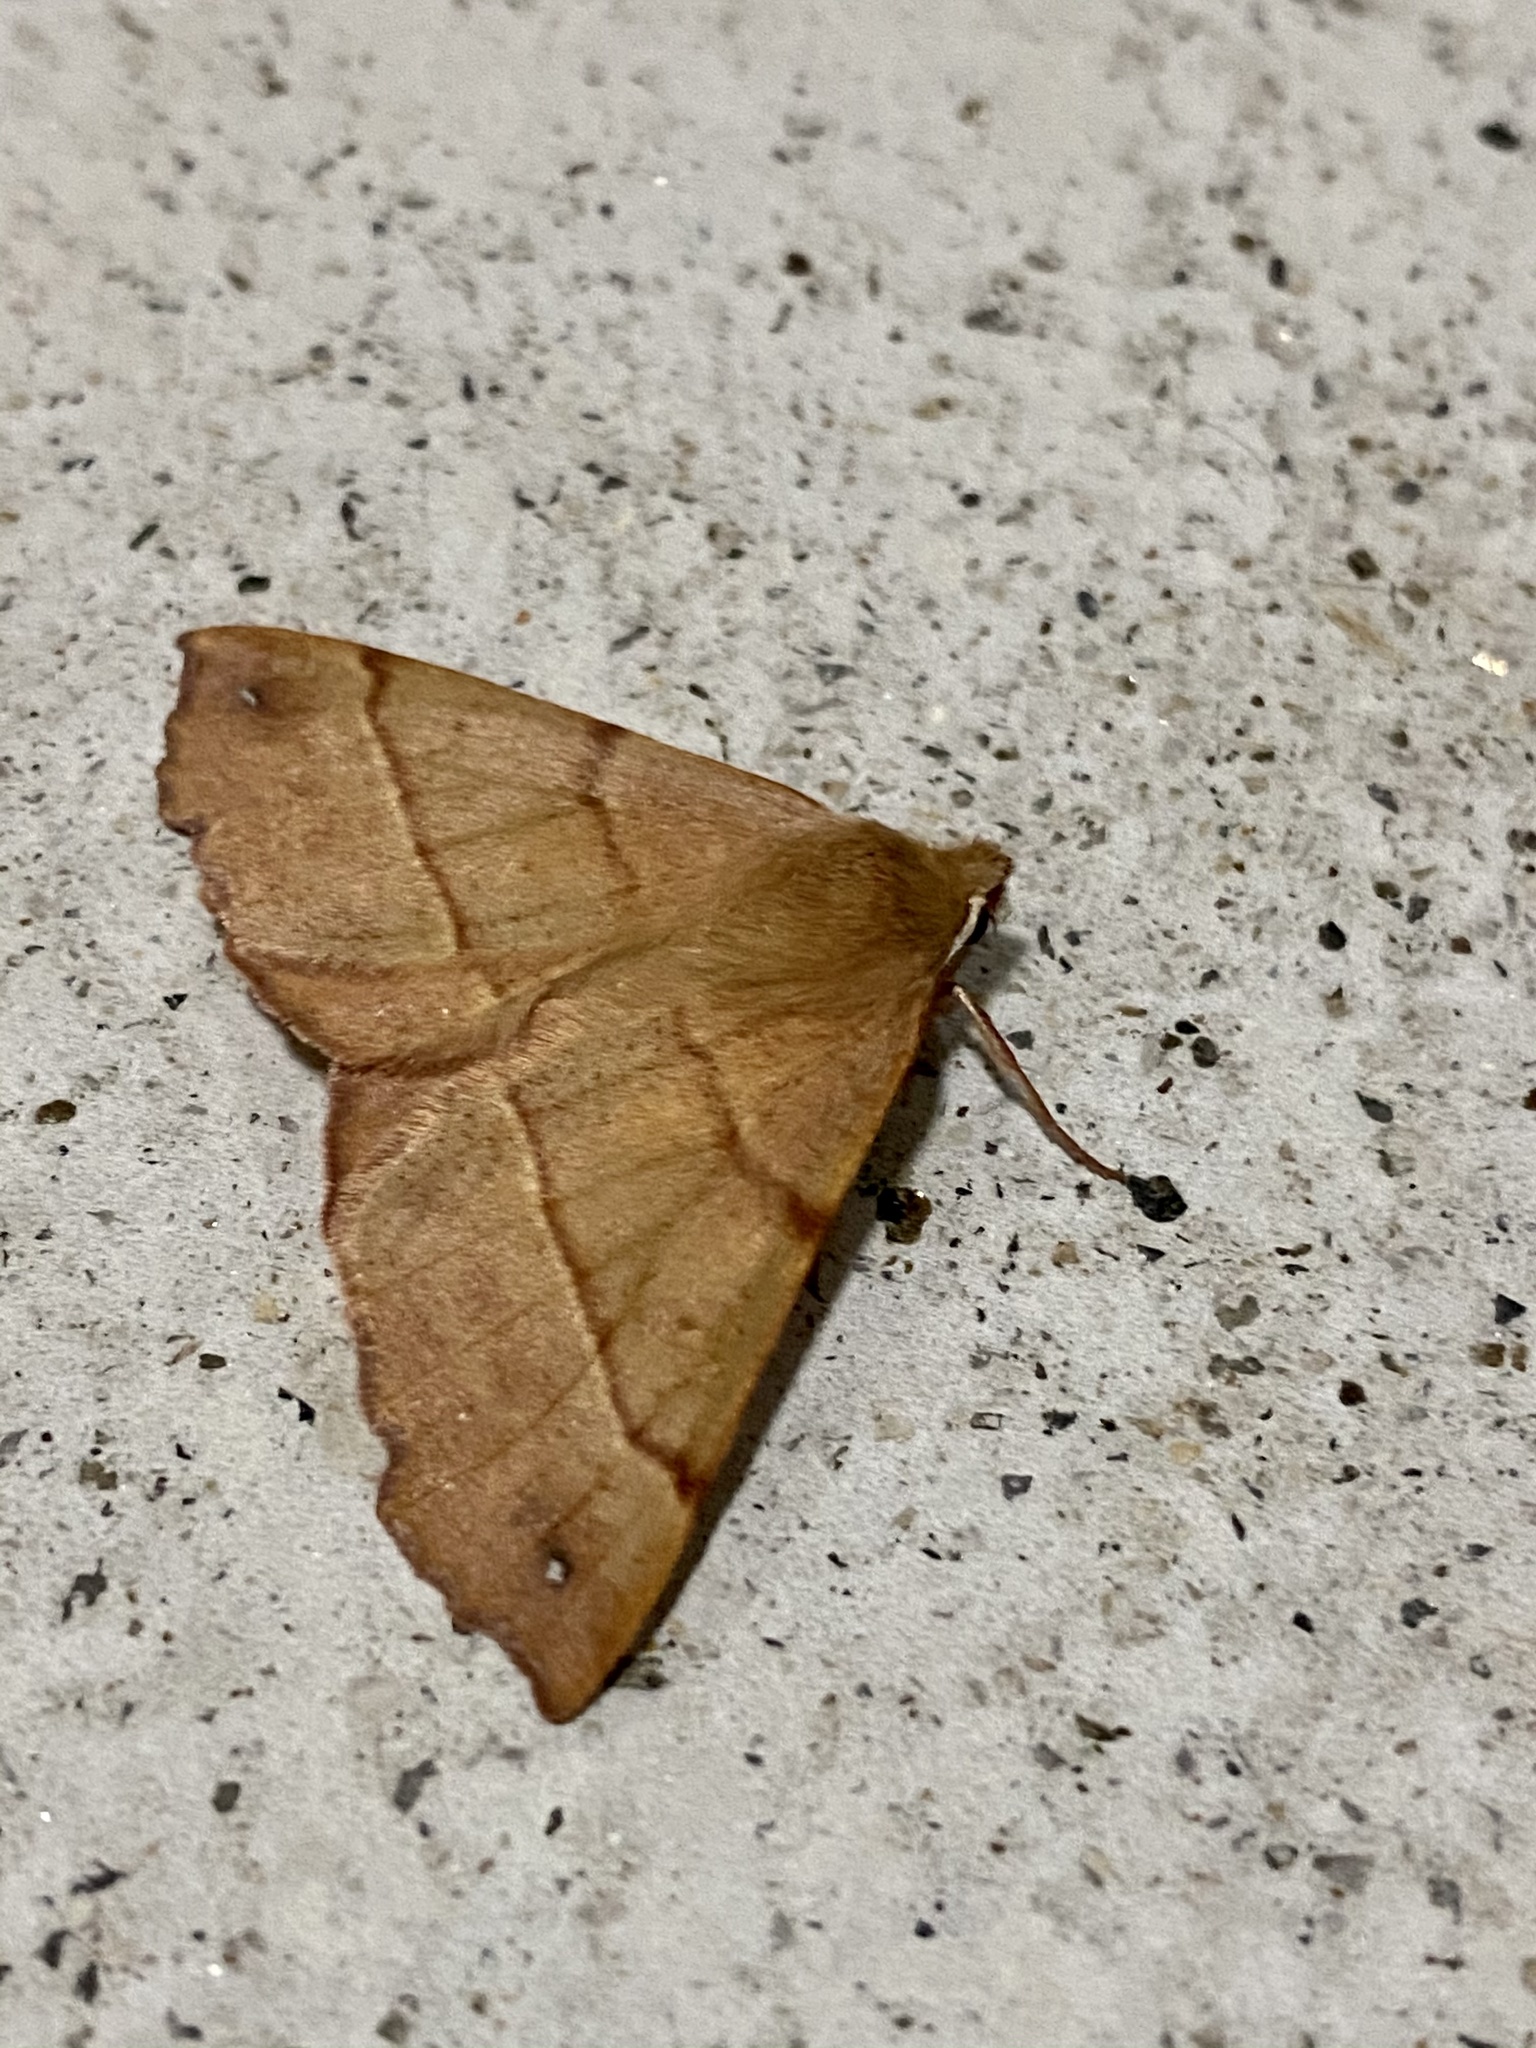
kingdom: Animalia
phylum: Arthropoda
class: Insecta
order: Lepidoptera
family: Geometridae
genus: Colotois
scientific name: Colotois pennaria
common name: Feathered thorn
